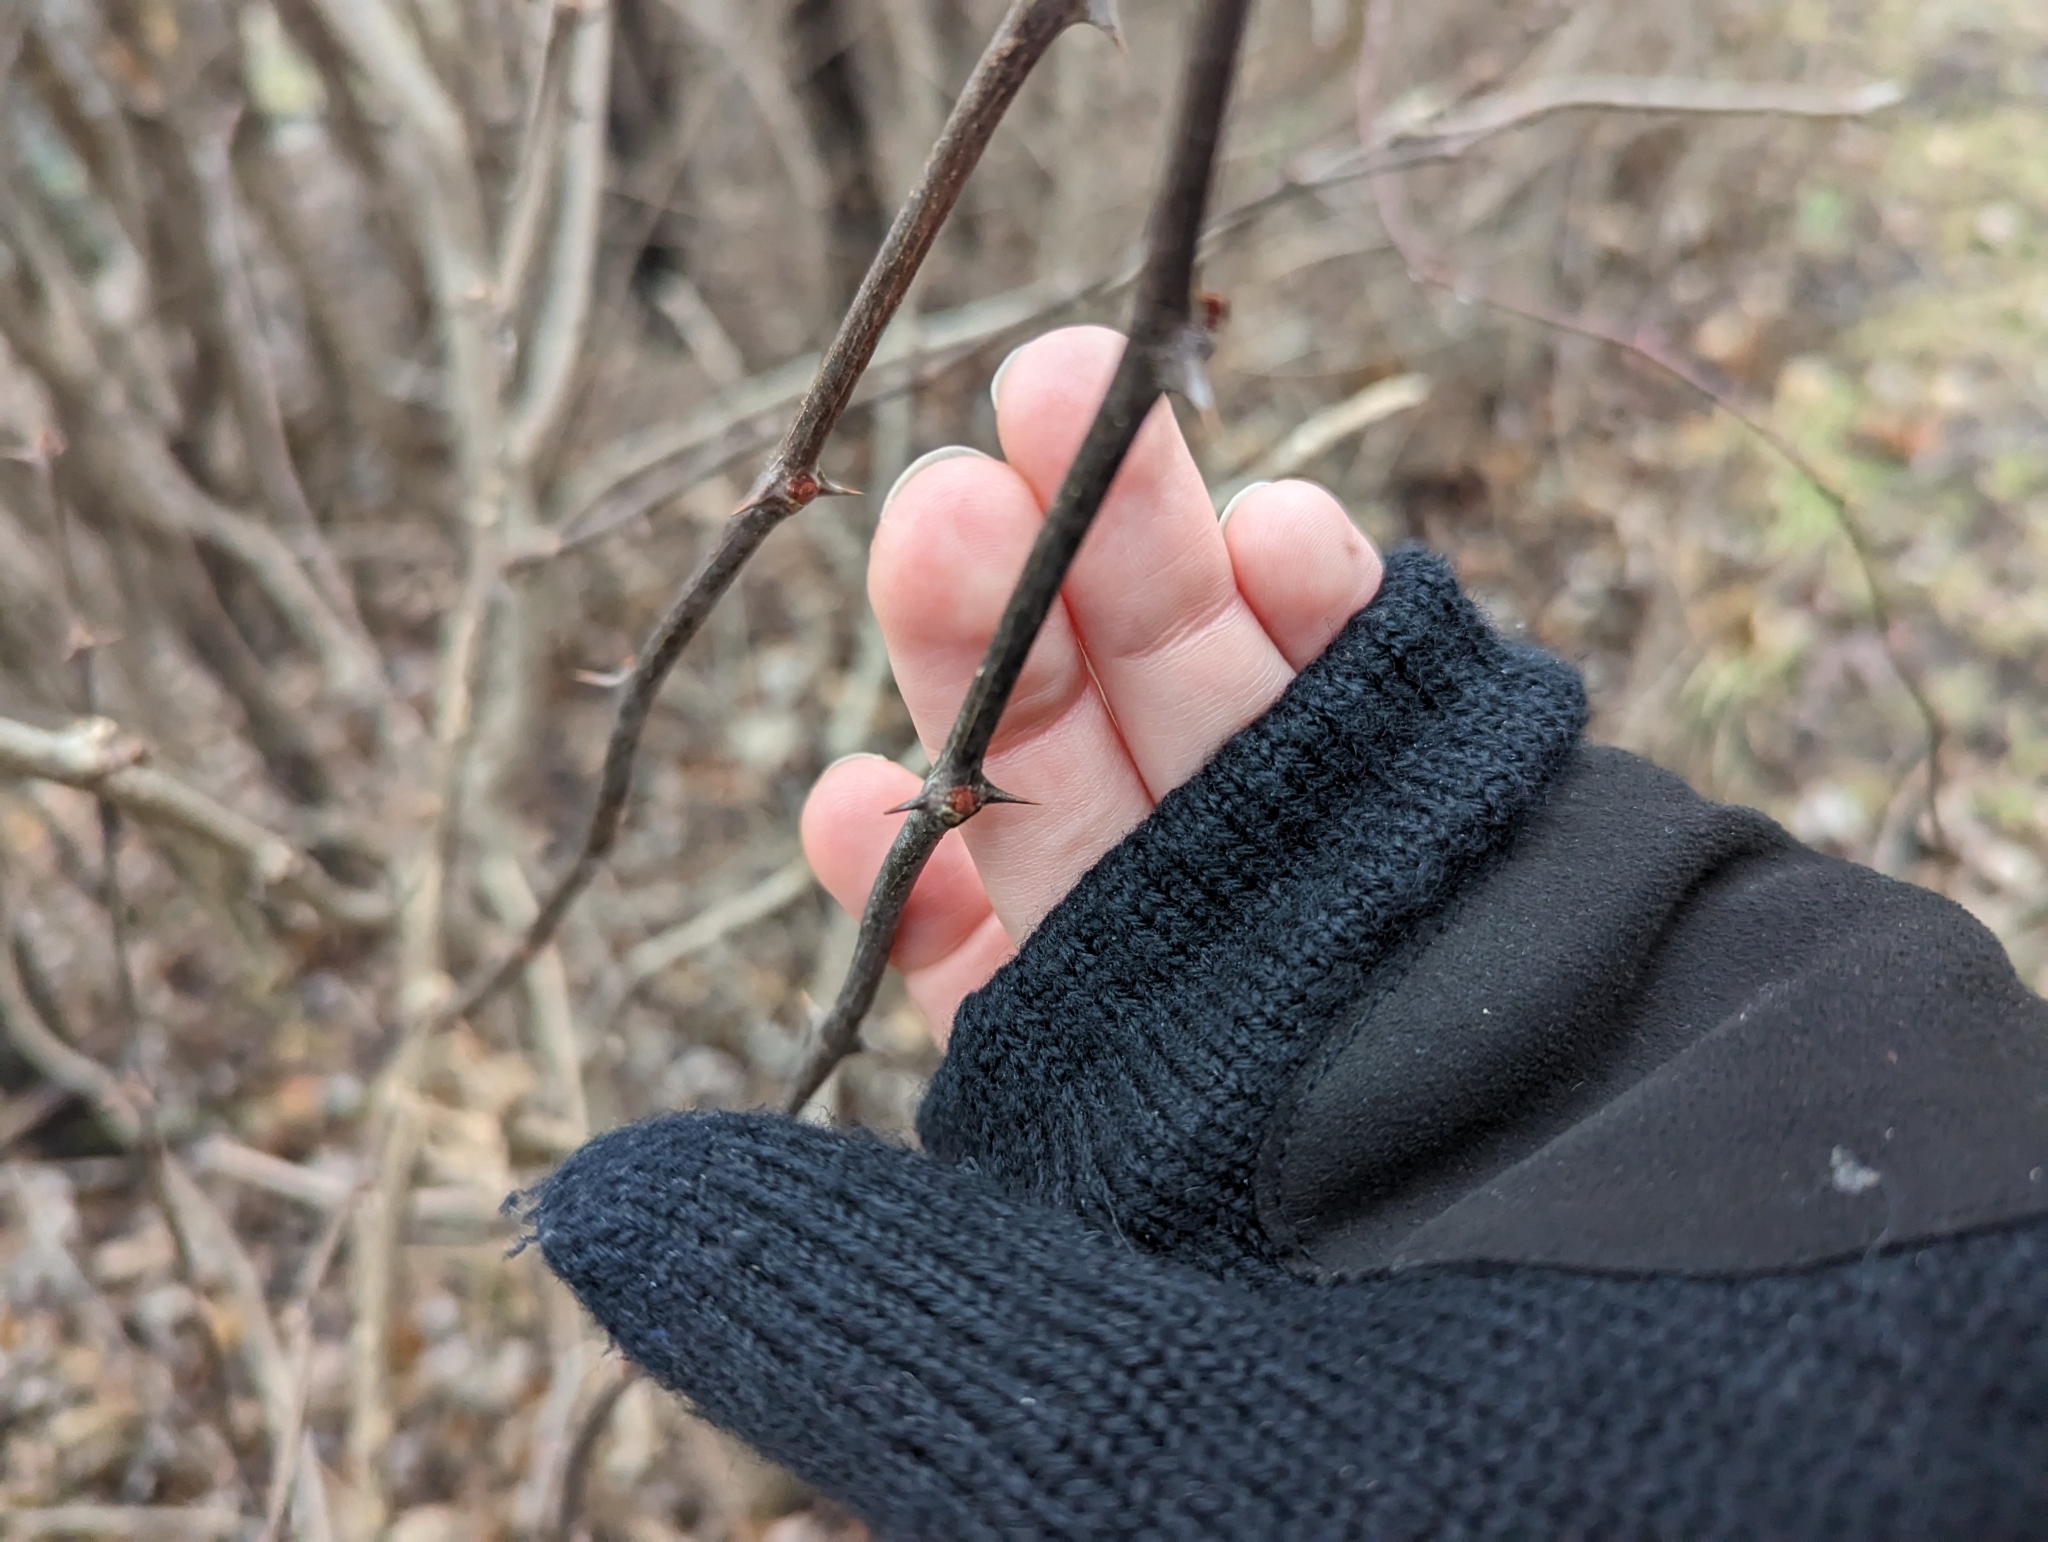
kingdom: Plantae
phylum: Tracheophyta
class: Magnoliopsida
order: Sapindales
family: Rutaceae
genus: Zanthoxylum
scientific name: Zanthoxylum americanum
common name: Northern prickly-ash
